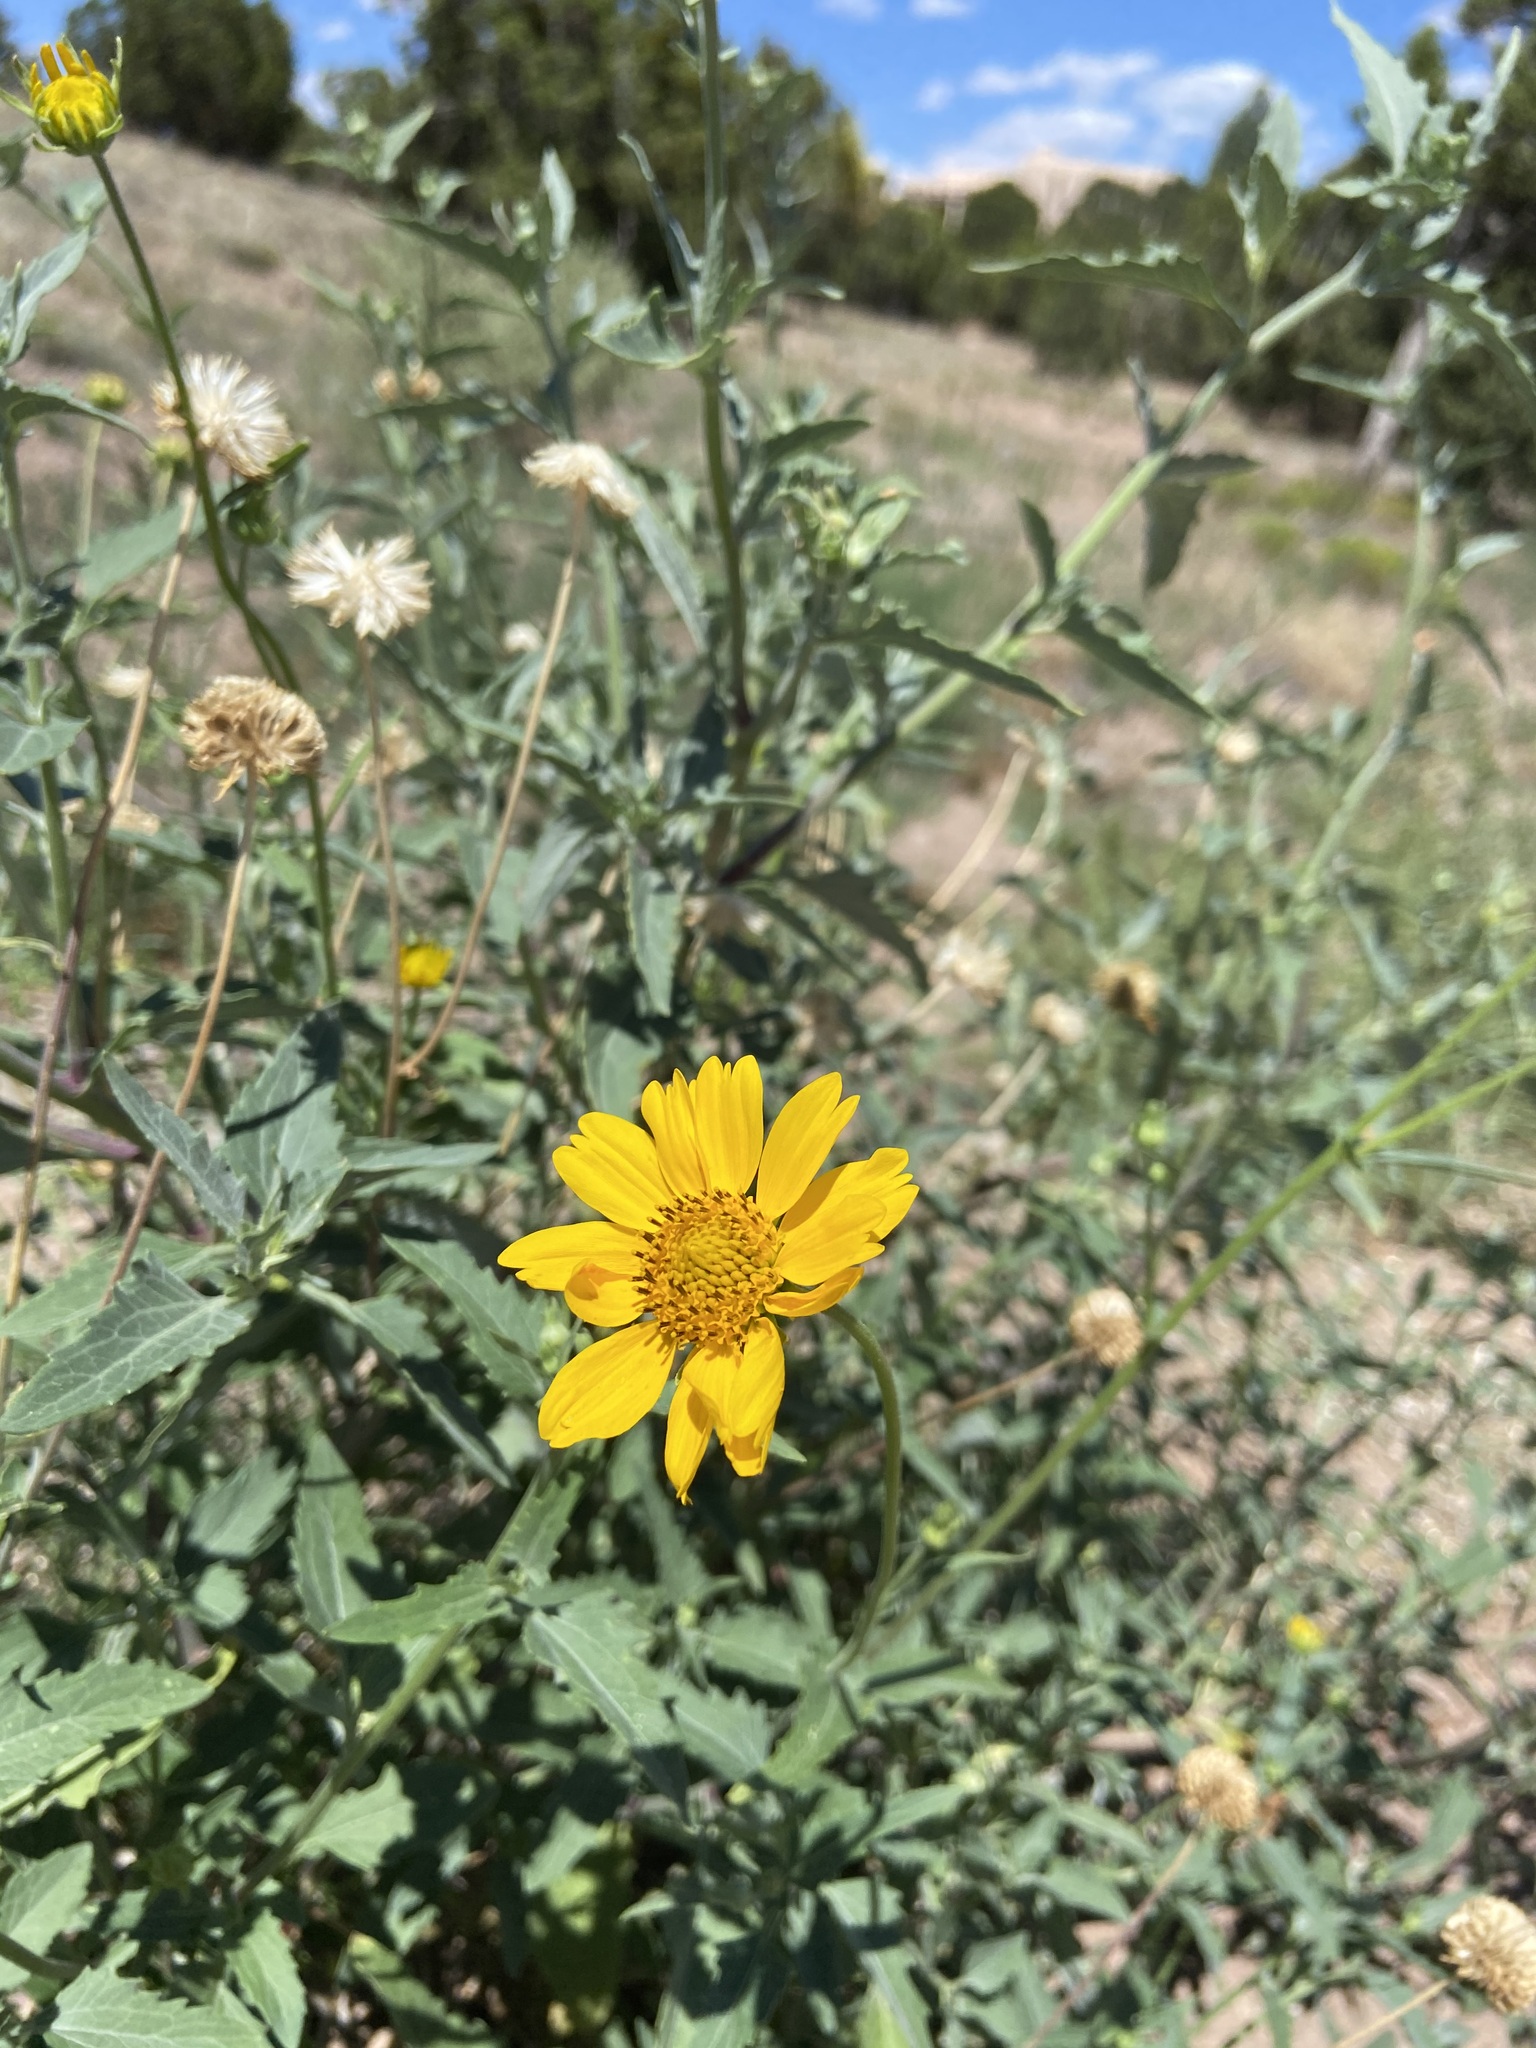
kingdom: Plantae
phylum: Tracheophyta
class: Magnoliopsida
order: Asterales
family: Asteraceae
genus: Verbesina
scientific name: Verbesina encelioides
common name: Golden crownbeard
